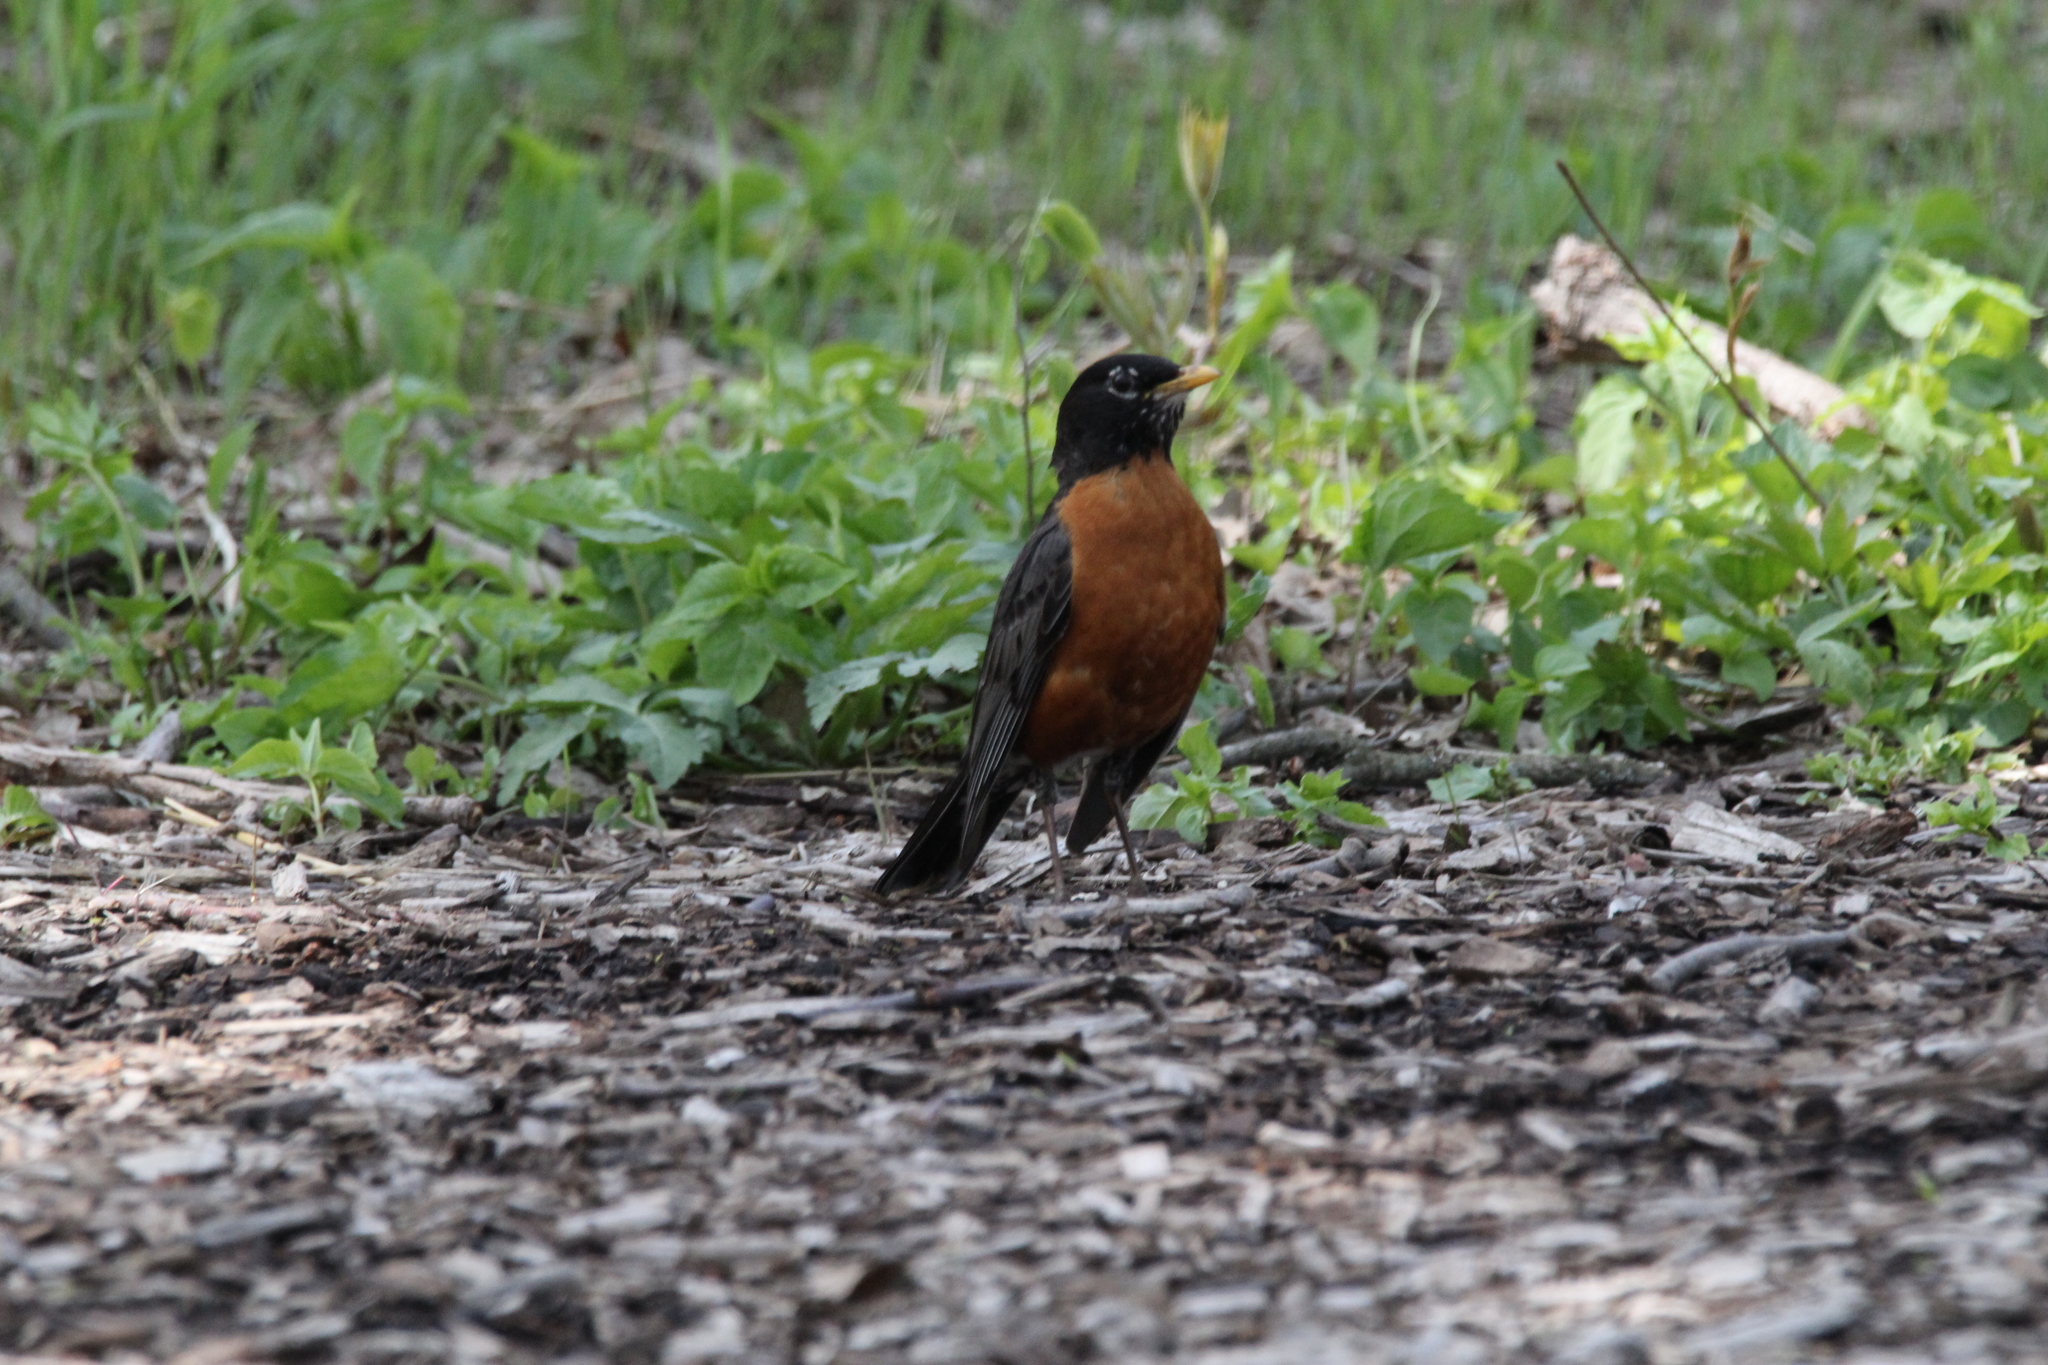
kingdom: Animalia
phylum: Chordata
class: Aves
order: Passeriformes
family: Turdidae
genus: Turdus
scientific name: Turdus migratorius
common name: American robin
